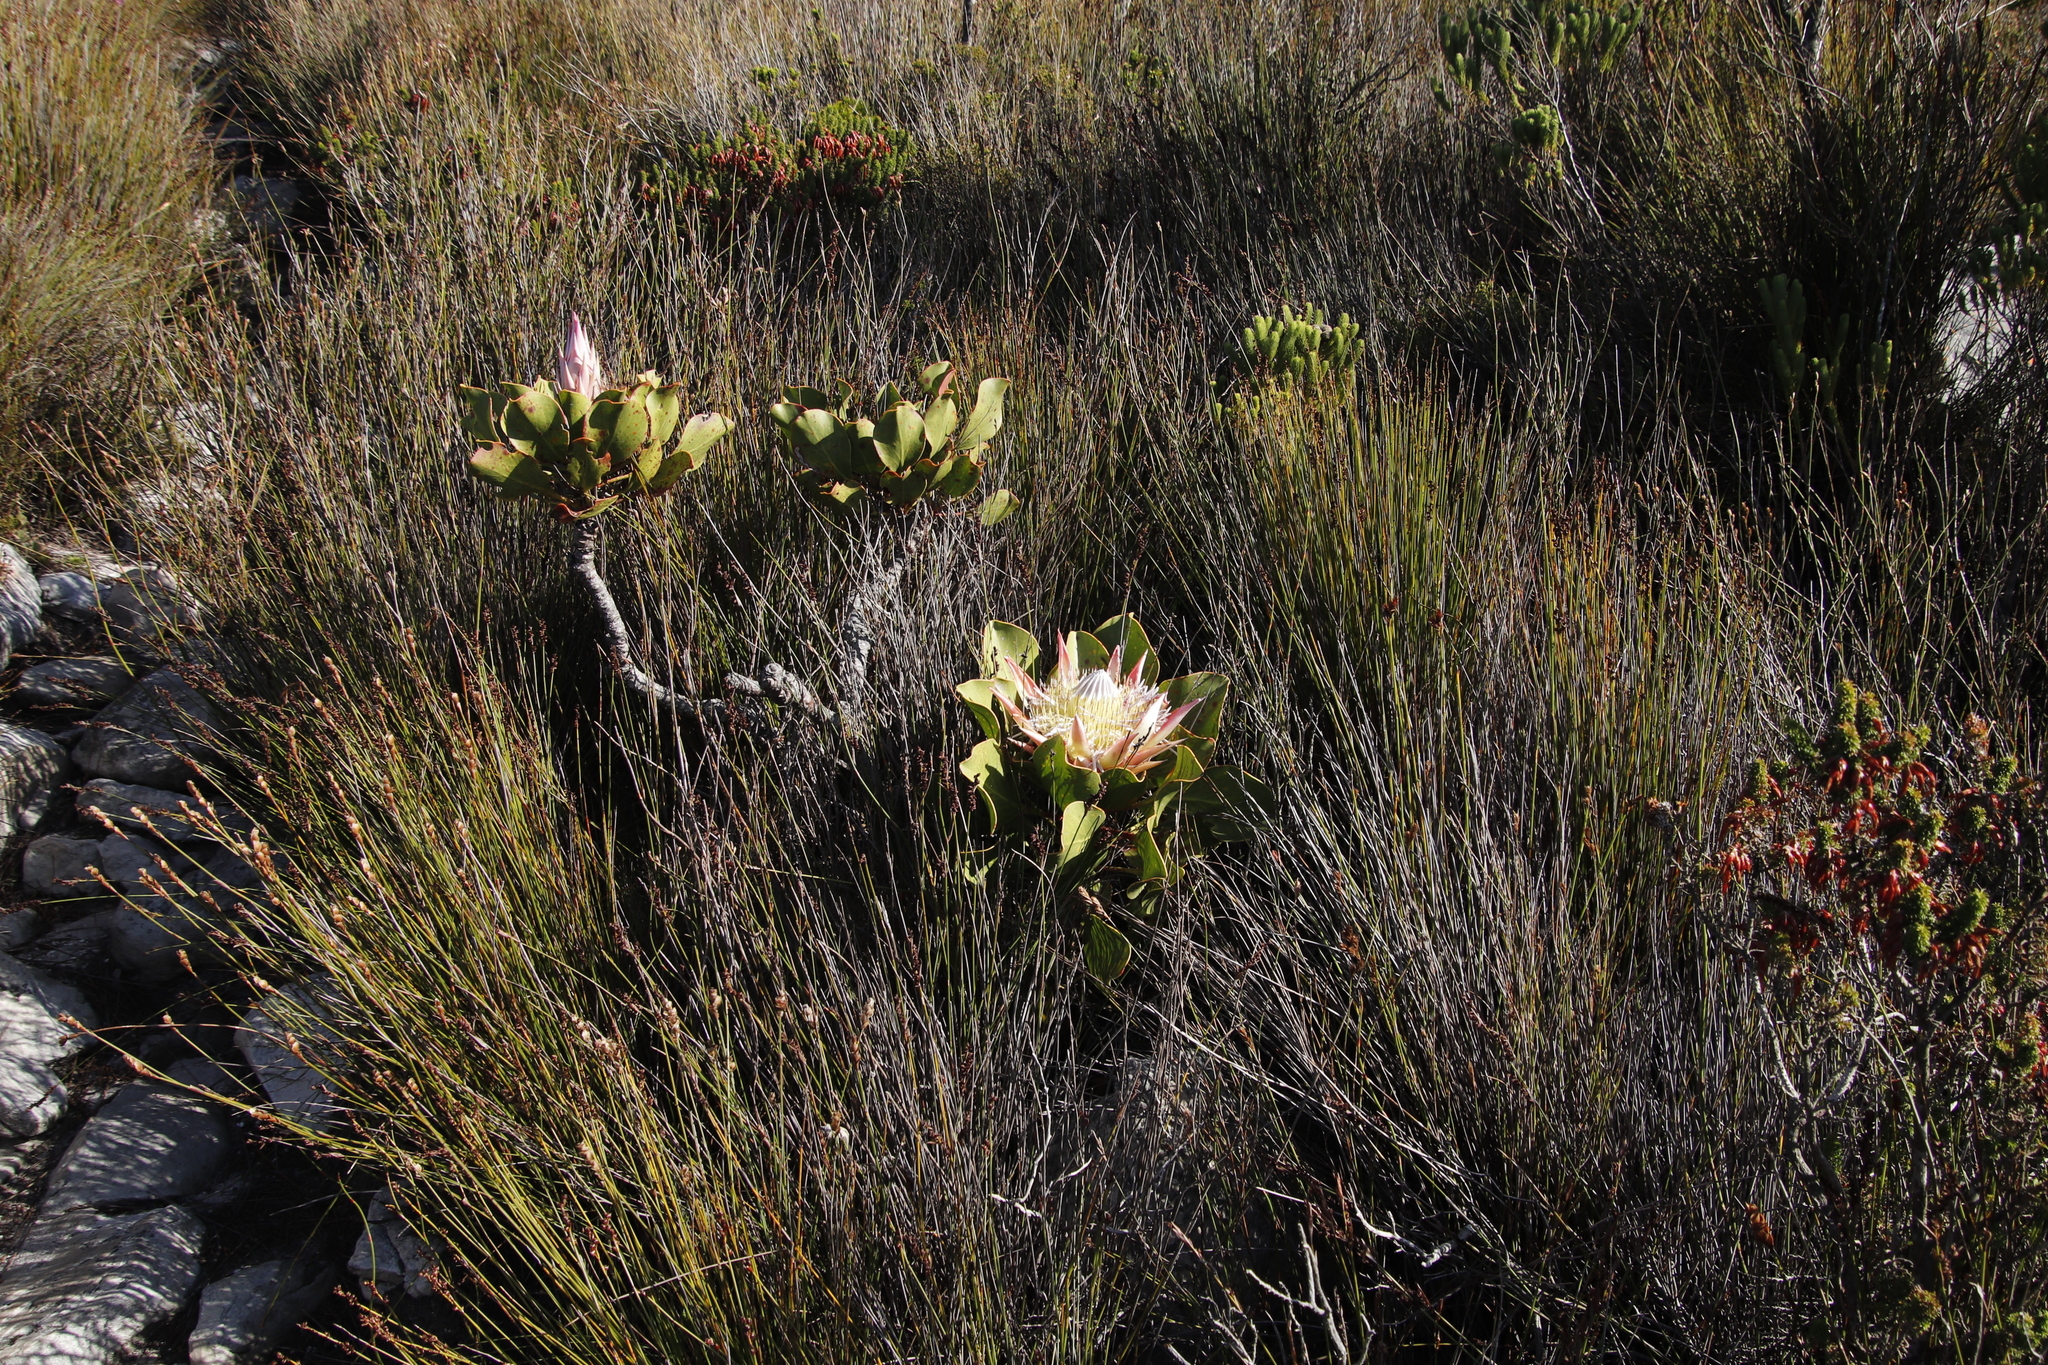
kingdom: Plantae
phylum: Tracheophyta
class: Magnoliopsida
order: Proteales
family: Proteaceae
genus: Protea
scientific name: Protea cynaroides
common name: King protea
